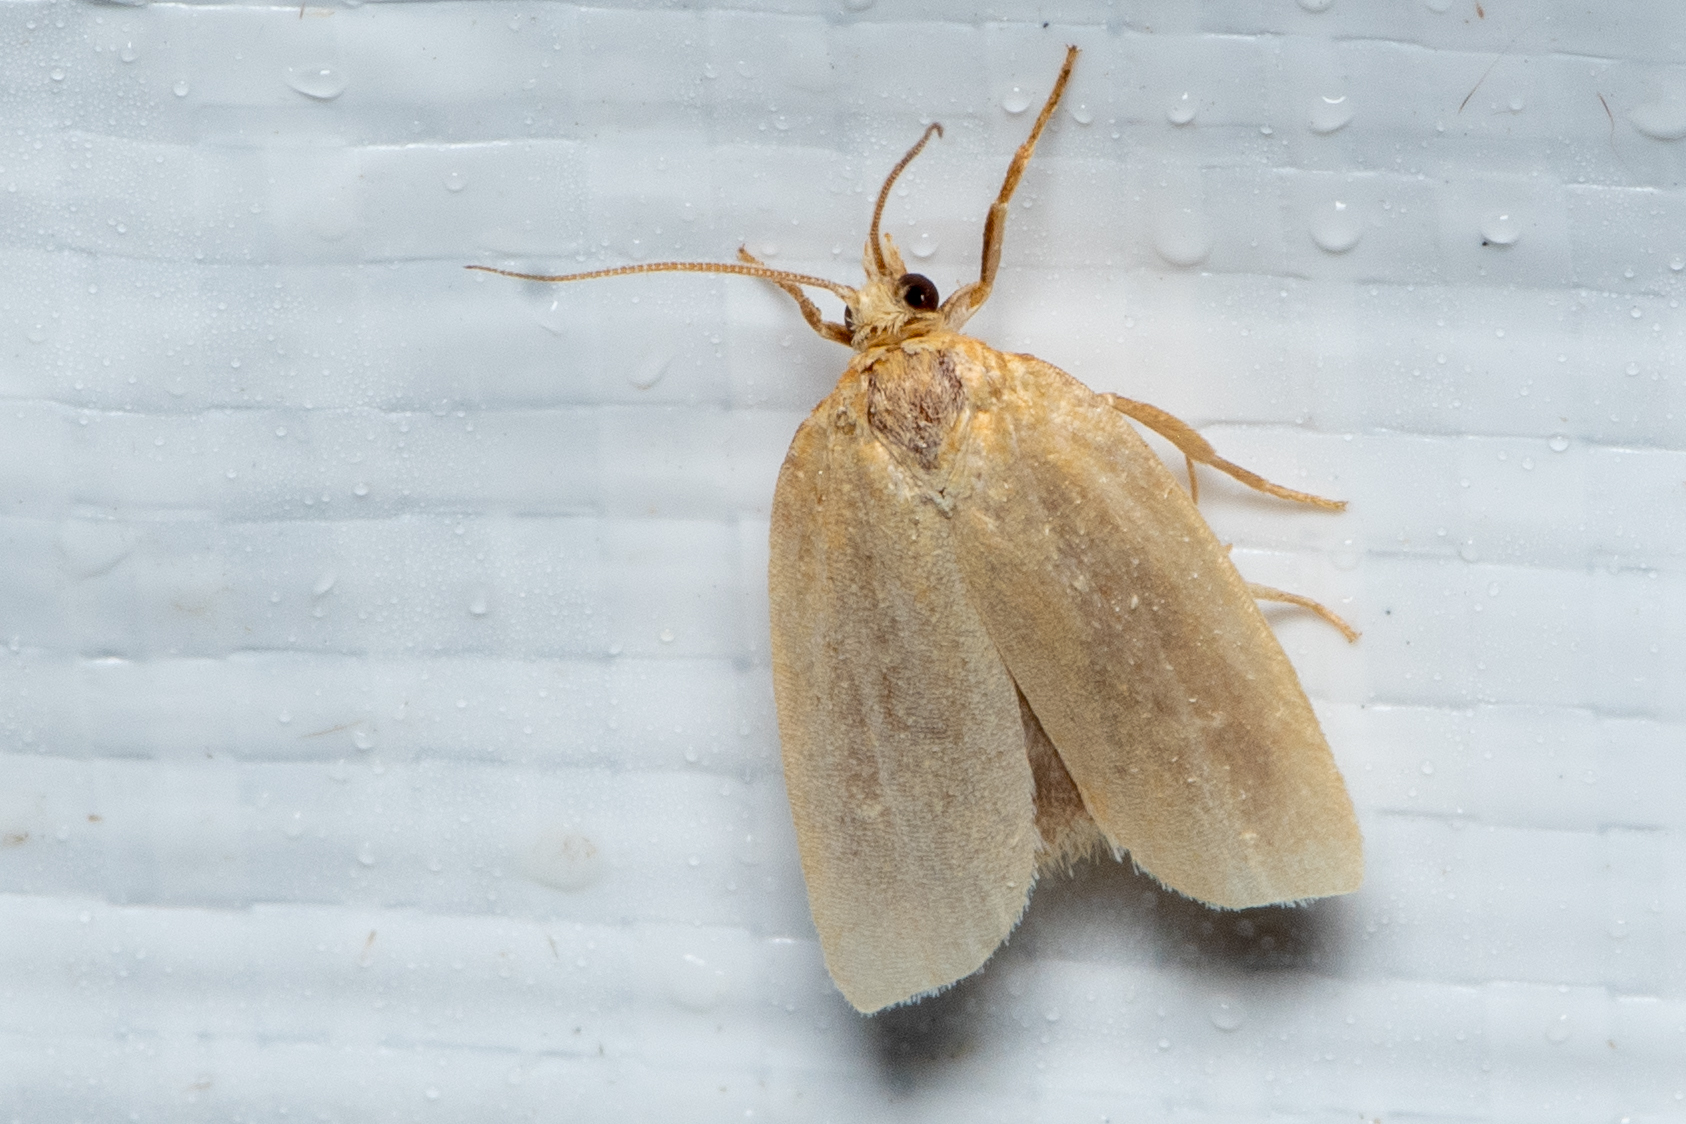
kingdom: Animalia
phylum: Arthropoda
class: Insecta
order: Lepidoptera
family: Tortricidae
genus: Xenotemna
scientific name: Xenotemna pallorana
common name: Pallid leafroller moth
